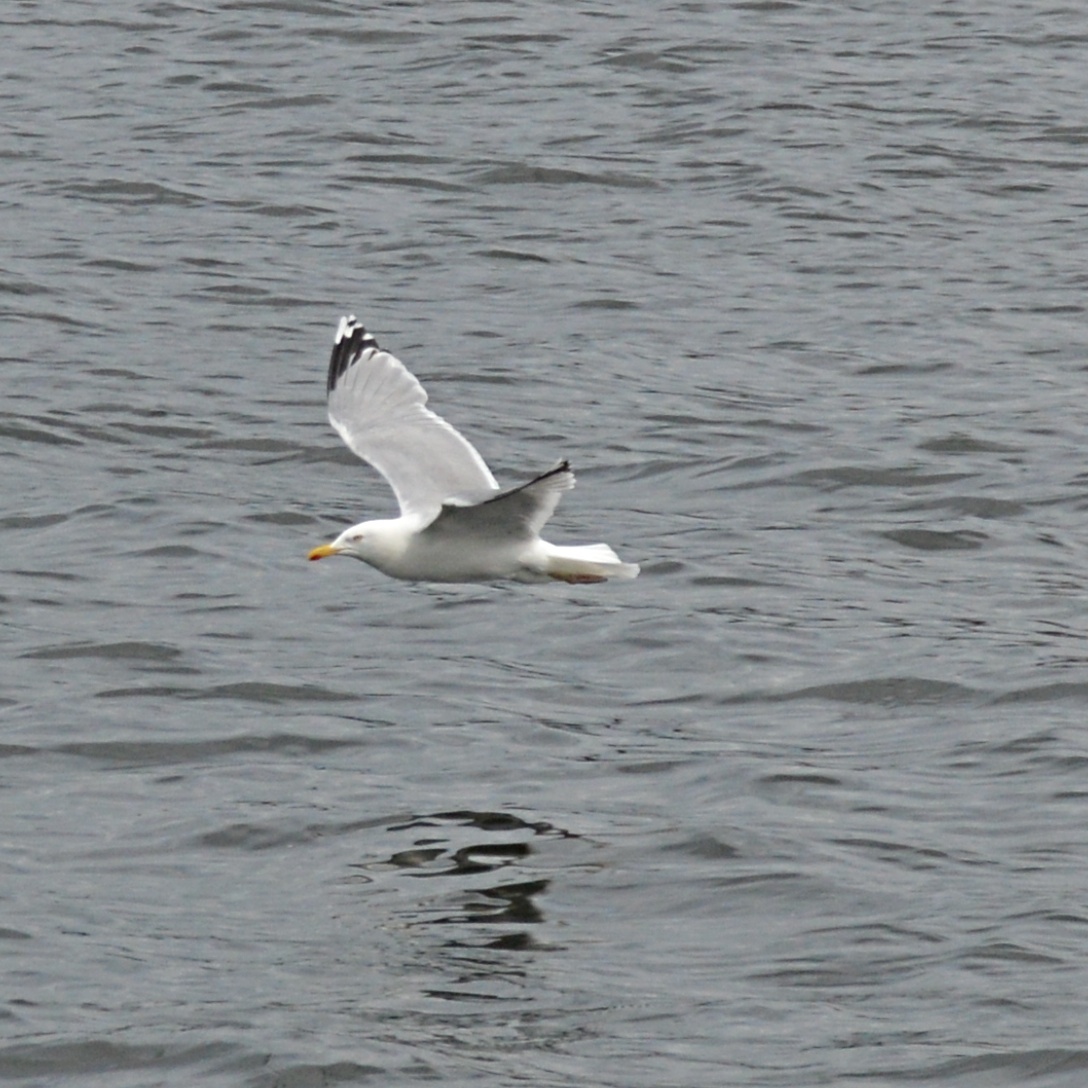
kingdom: Animalia
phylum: Chordata
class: Aves
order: Charadriiformes
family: Laridae
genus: Larus
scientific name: Larus argentatus
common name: Herring gull
